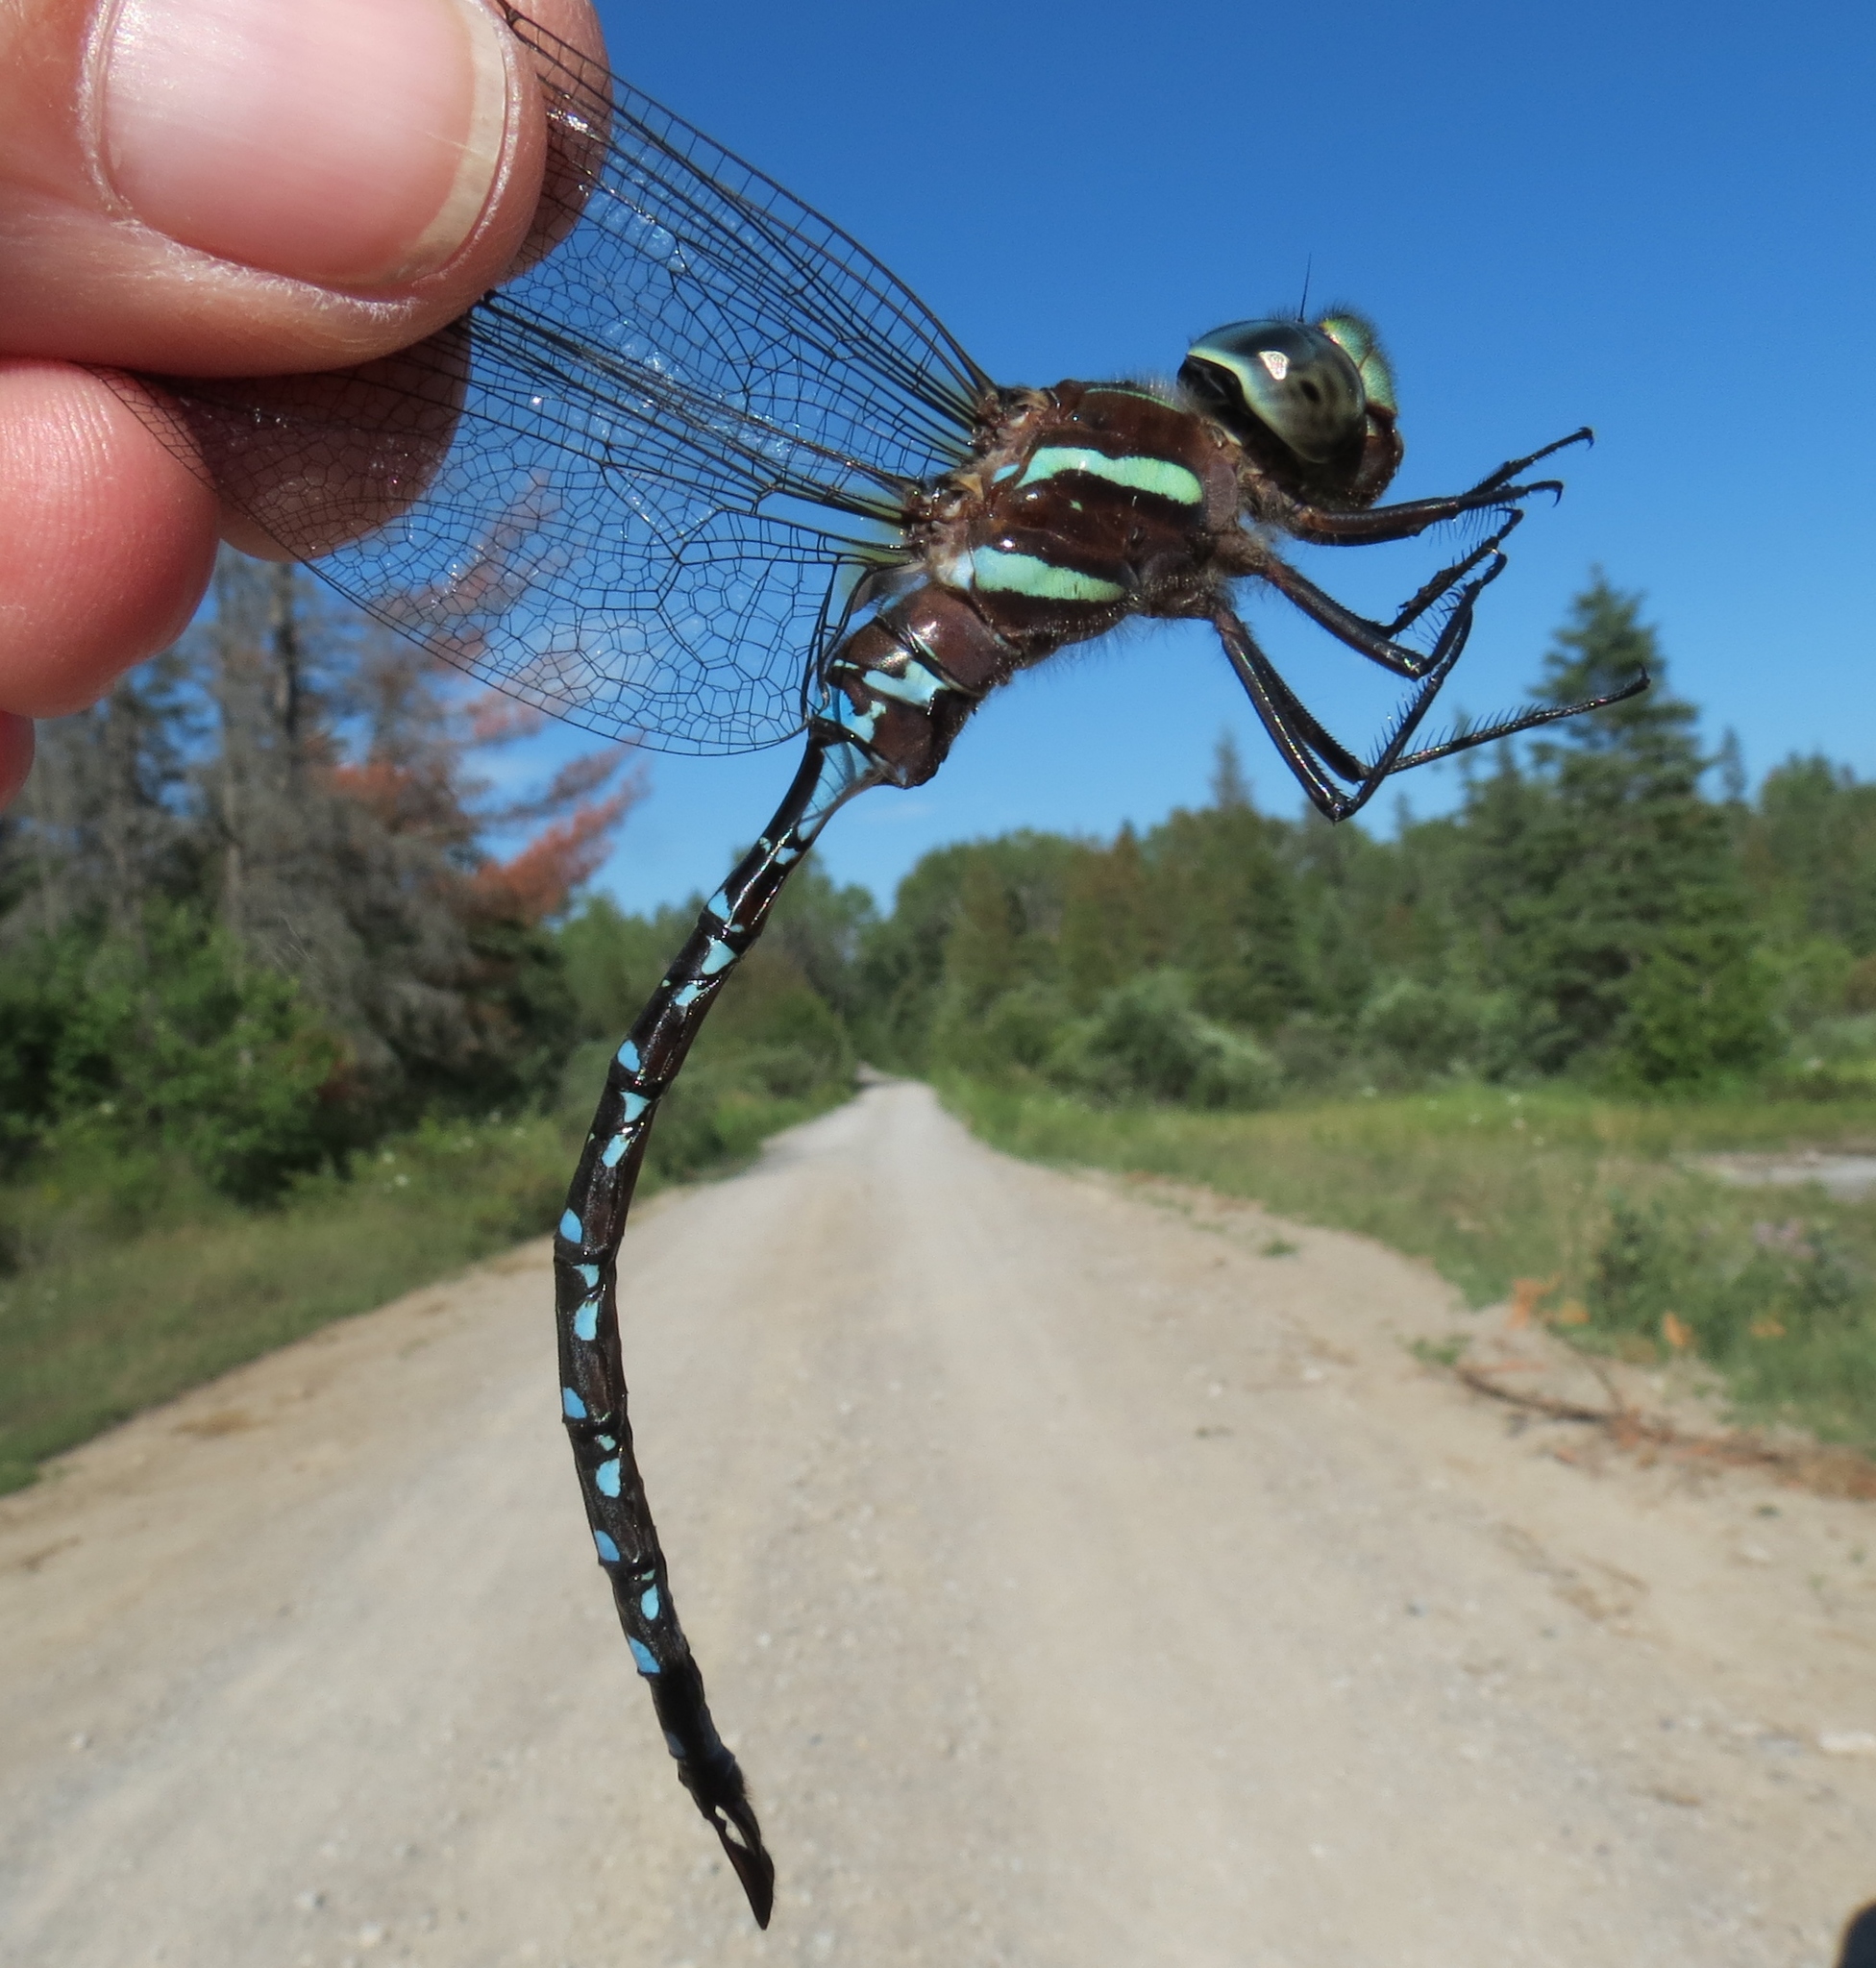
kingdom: Animalia
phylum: Arthropoda
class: Insecta
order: Odonata
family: Aeshnidae
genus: Aeshna
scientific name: Aeshna tuberculifera
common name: Aeschne à tubercules
